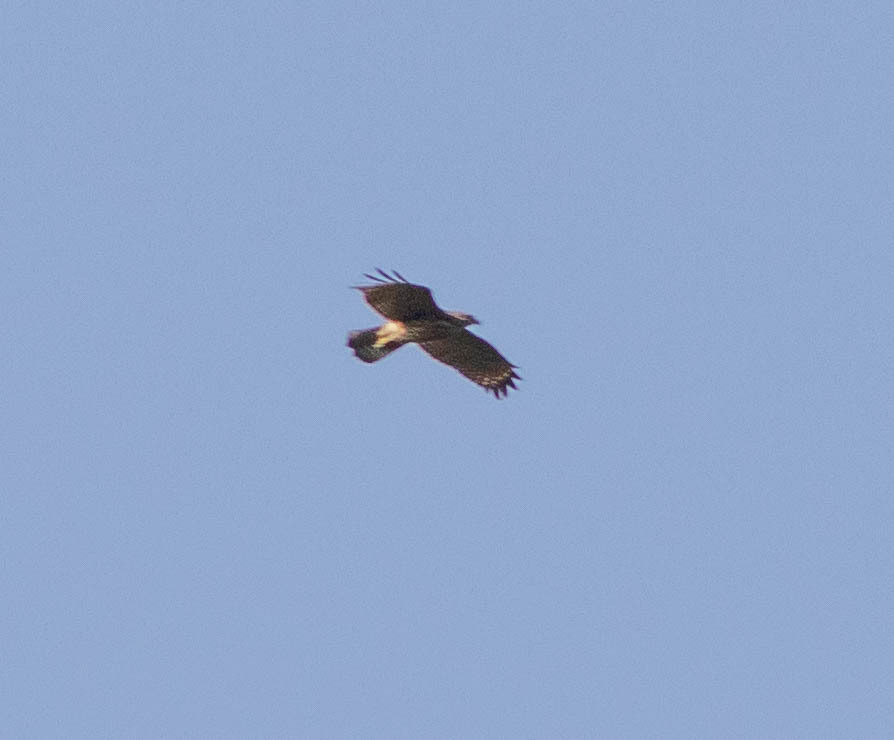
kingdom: Animalia
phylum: Chordata
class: Aves
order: Accipitriformes
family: Accipitridae
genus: Buteo
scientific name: Buteo lineatus
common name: Red-shouldered hawk
